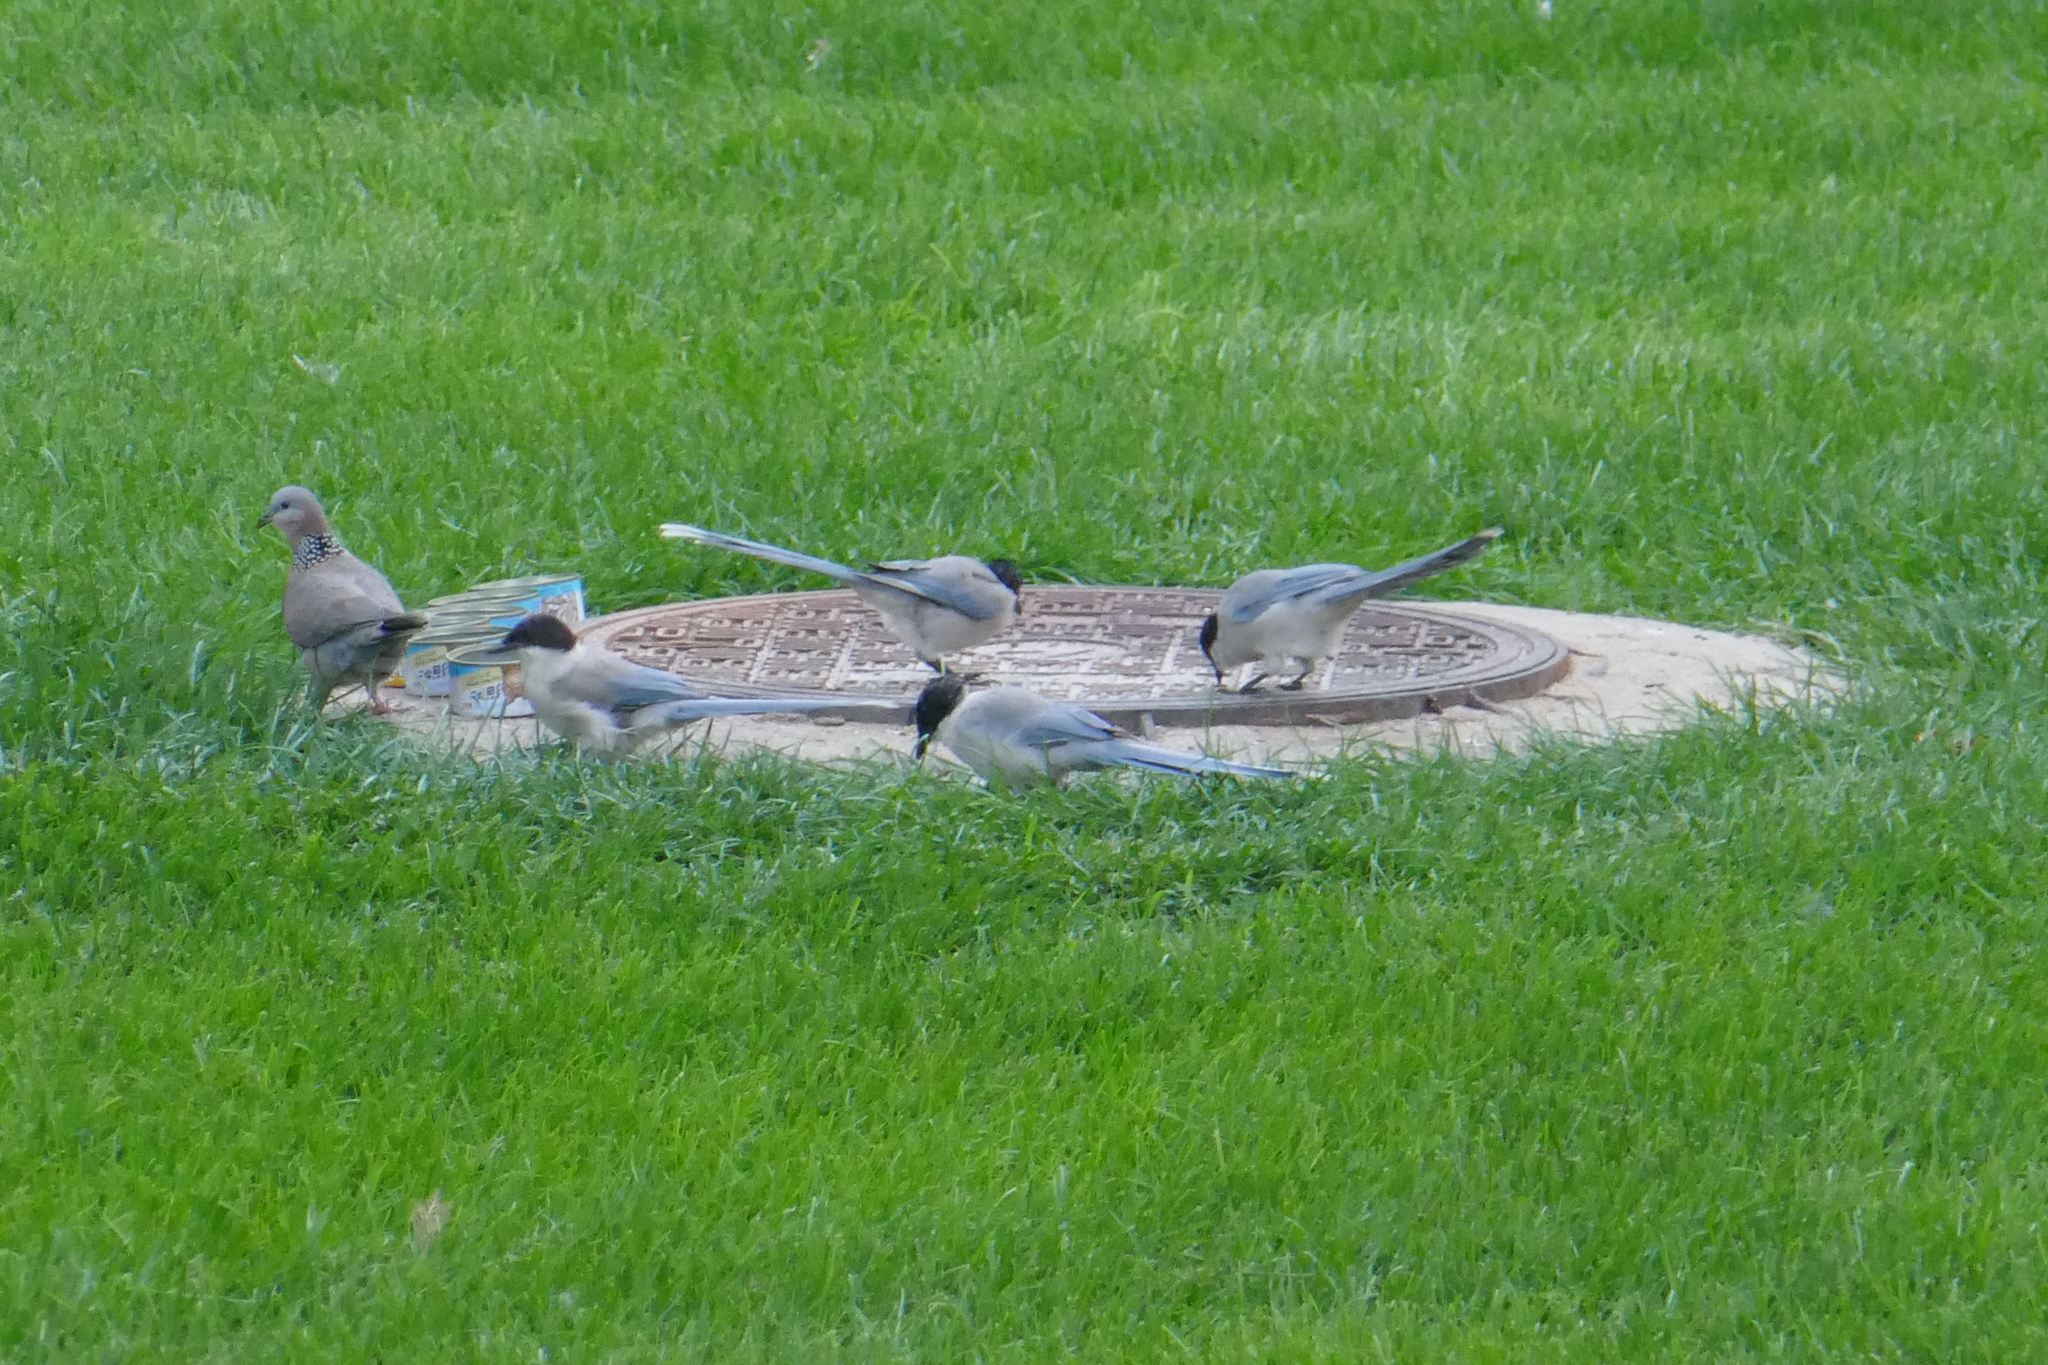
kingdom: Animalia
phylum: Chordata
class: Aves
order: Passeriformes
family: Corvidae
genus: Cyanopica
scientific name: Cyanopica cyanus
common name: Azure-winged magpie
